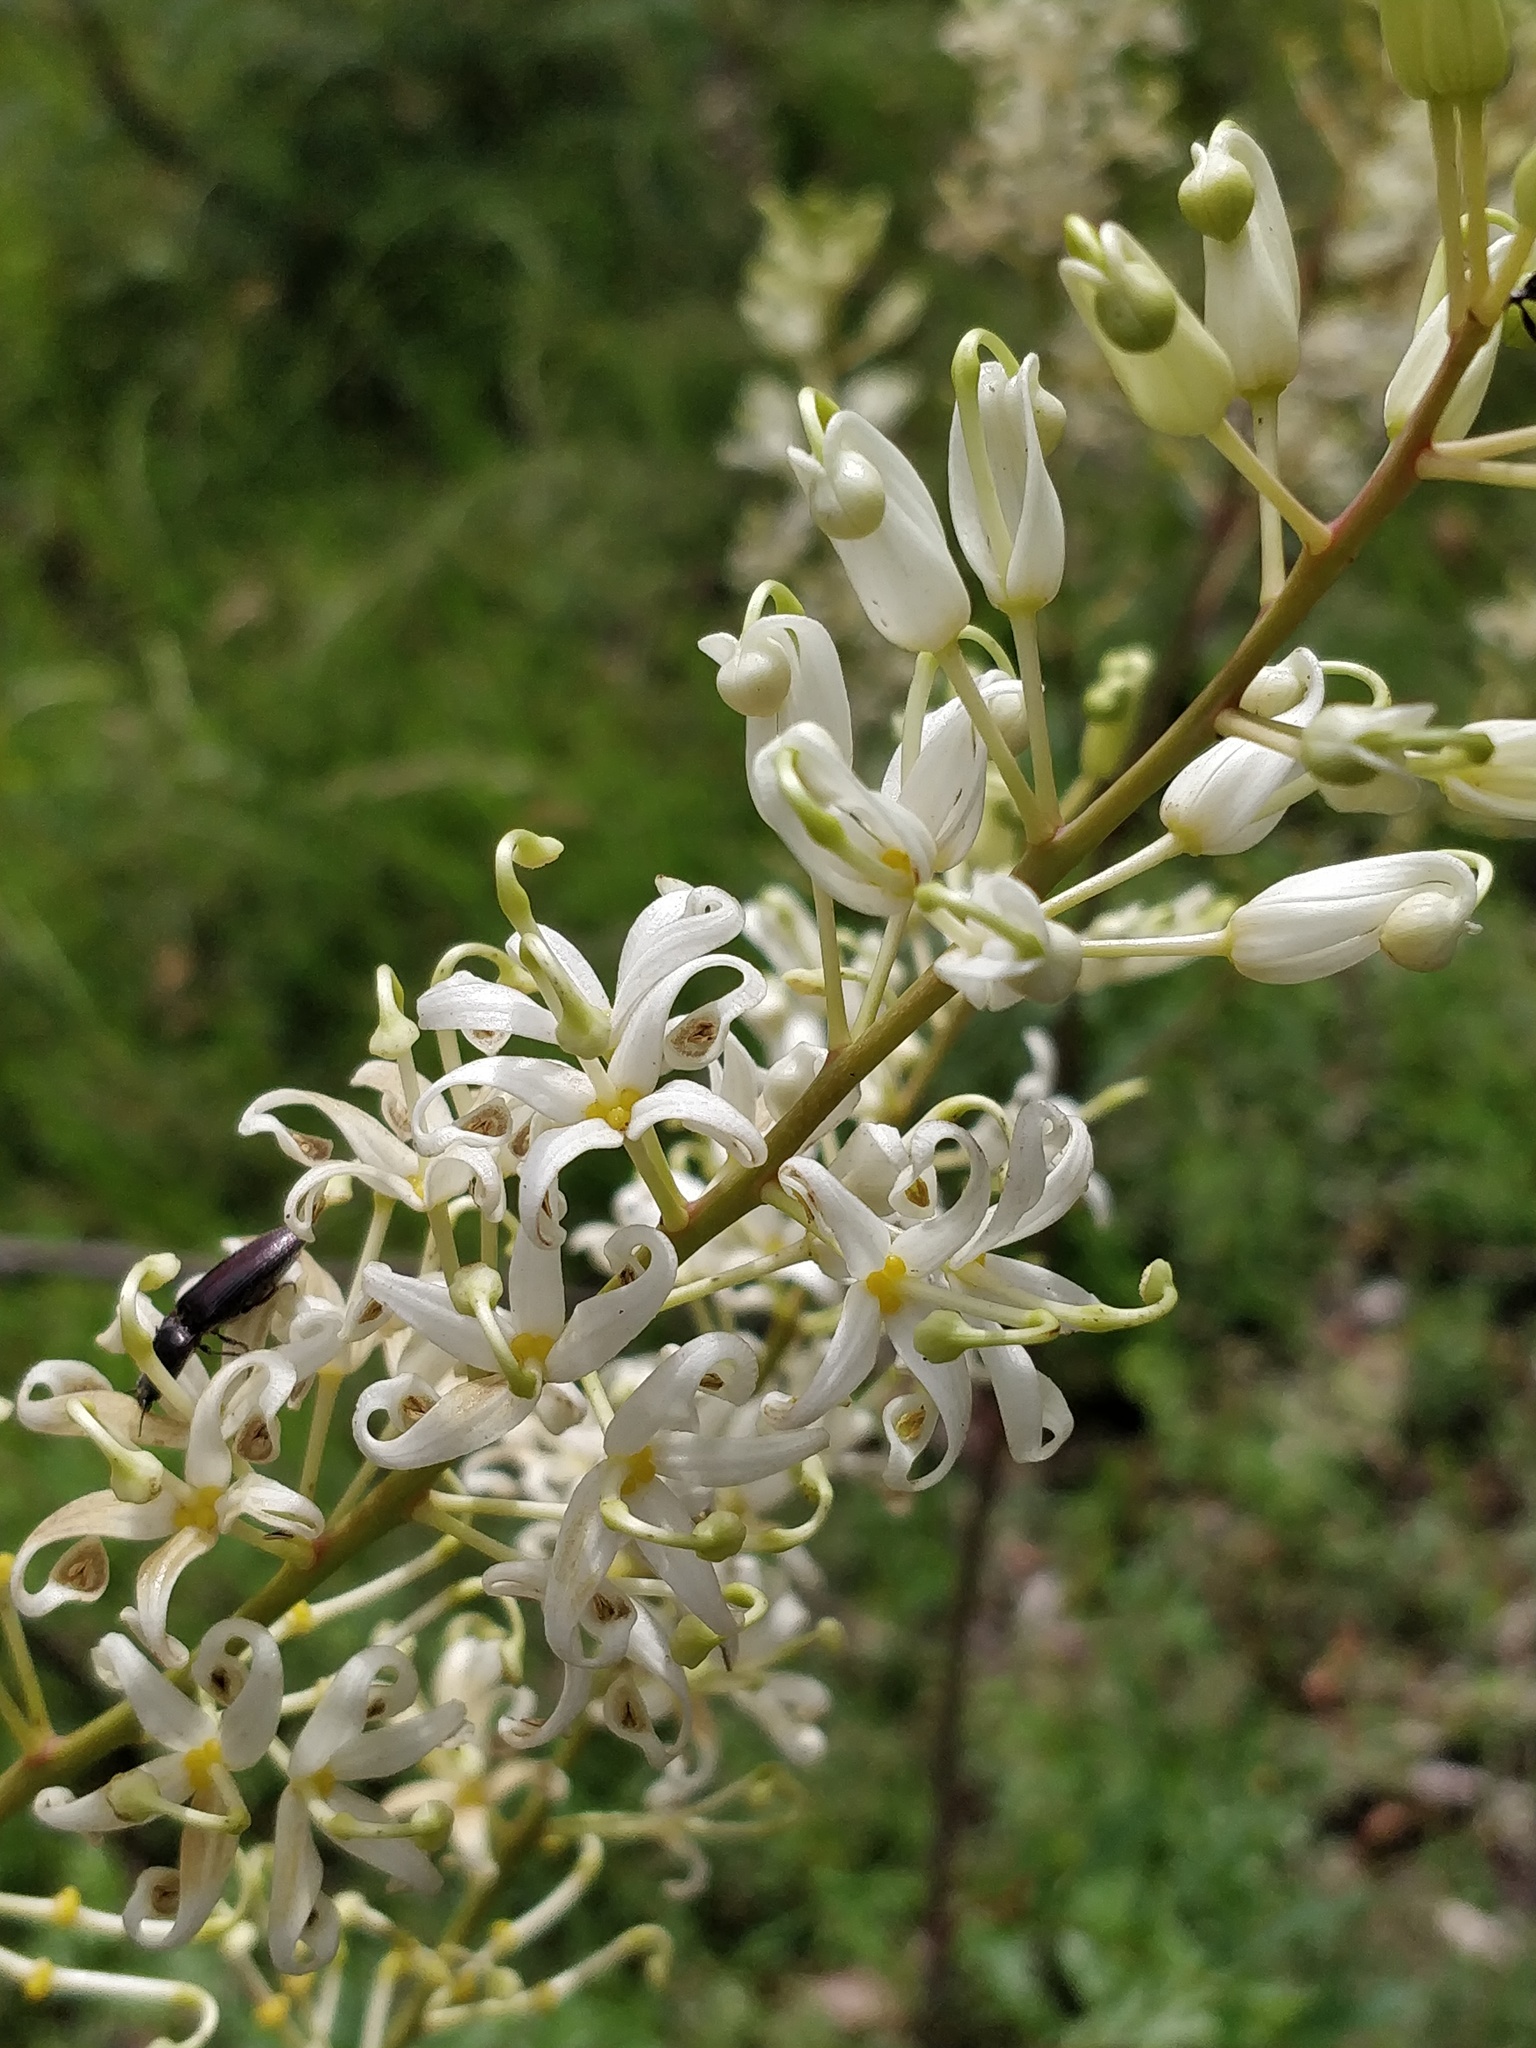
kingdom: Plantae
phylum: Tracheophyta
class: Magnoliopsida
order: Proteales
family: Proteaceae
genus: Lomatia
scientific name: Lomatia silaifolia
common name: Crinklebush
